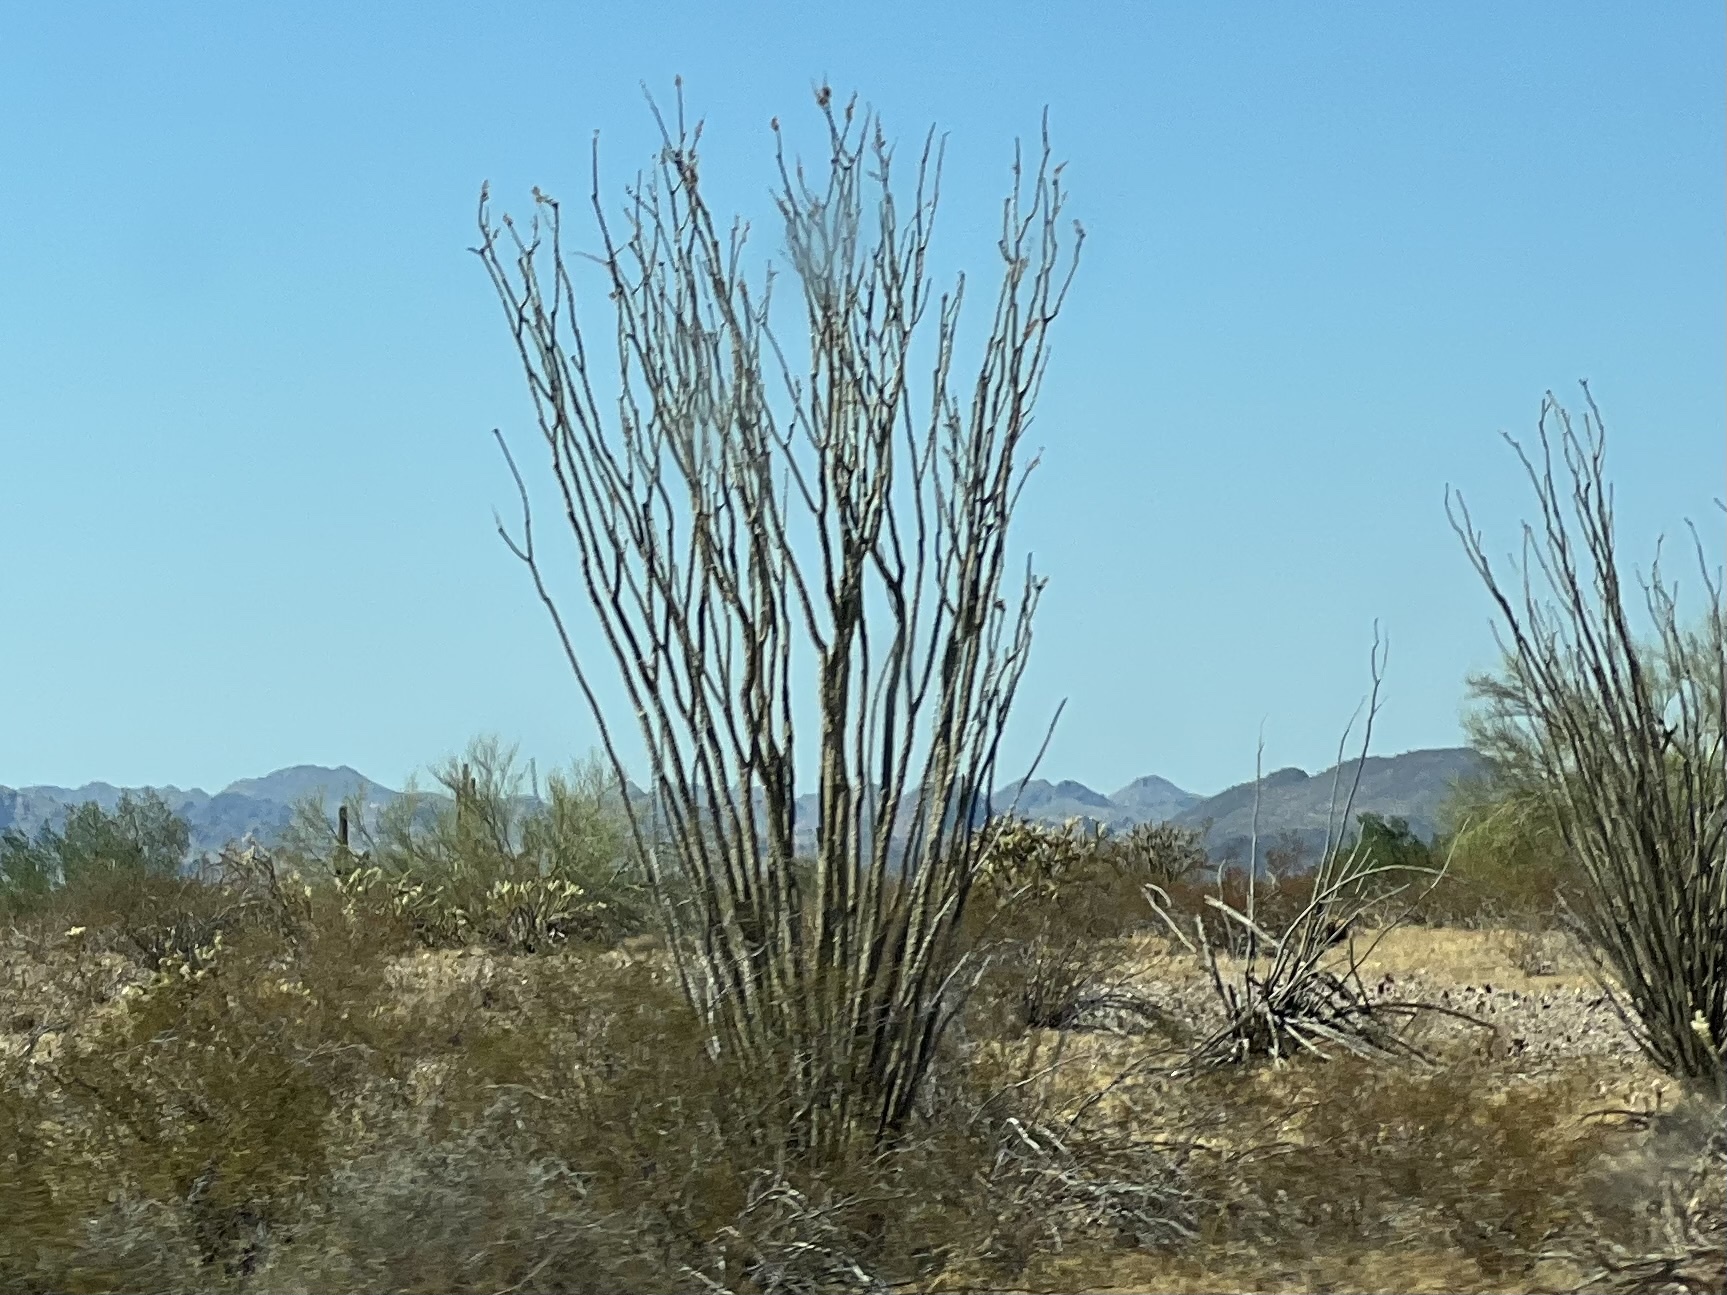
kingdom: Plantae
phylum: Tracheophyta
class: Magnoliopsida
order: Ericales
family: Fouquieriaceae
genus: Fouquieria
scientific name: Fouquieria splendens
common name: Vine-cactus
